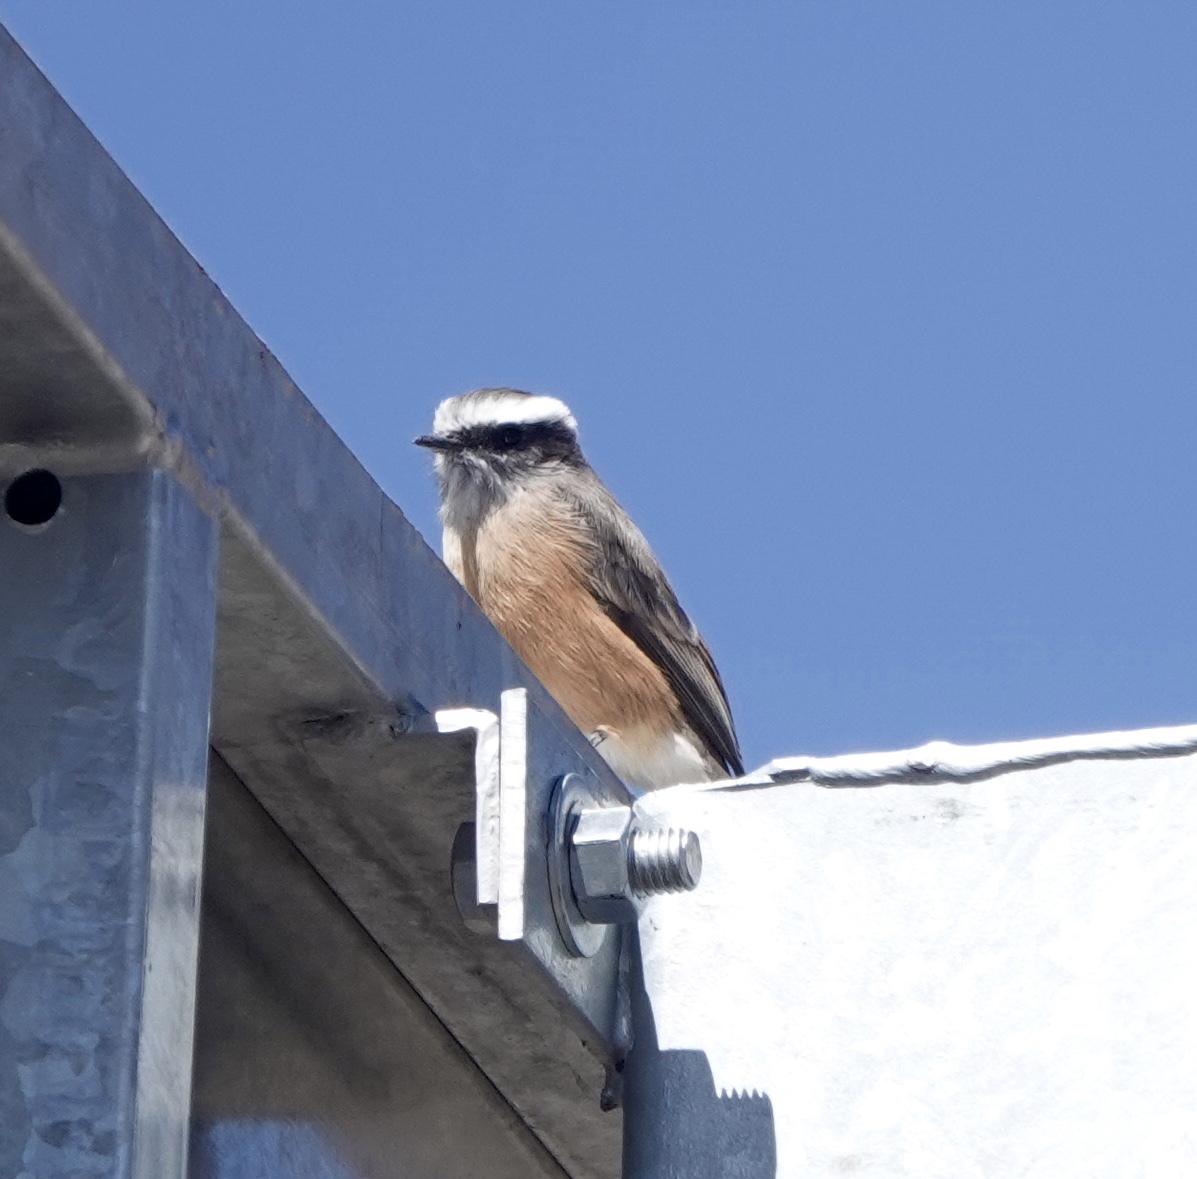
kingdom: Animalia
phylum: Chordata
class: Aves
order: Passeriformes
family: Tyrannidae
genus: Ochthoeca
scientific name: Ochthoeca oenanthoides
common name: D'orbigny's chat-tyrant
